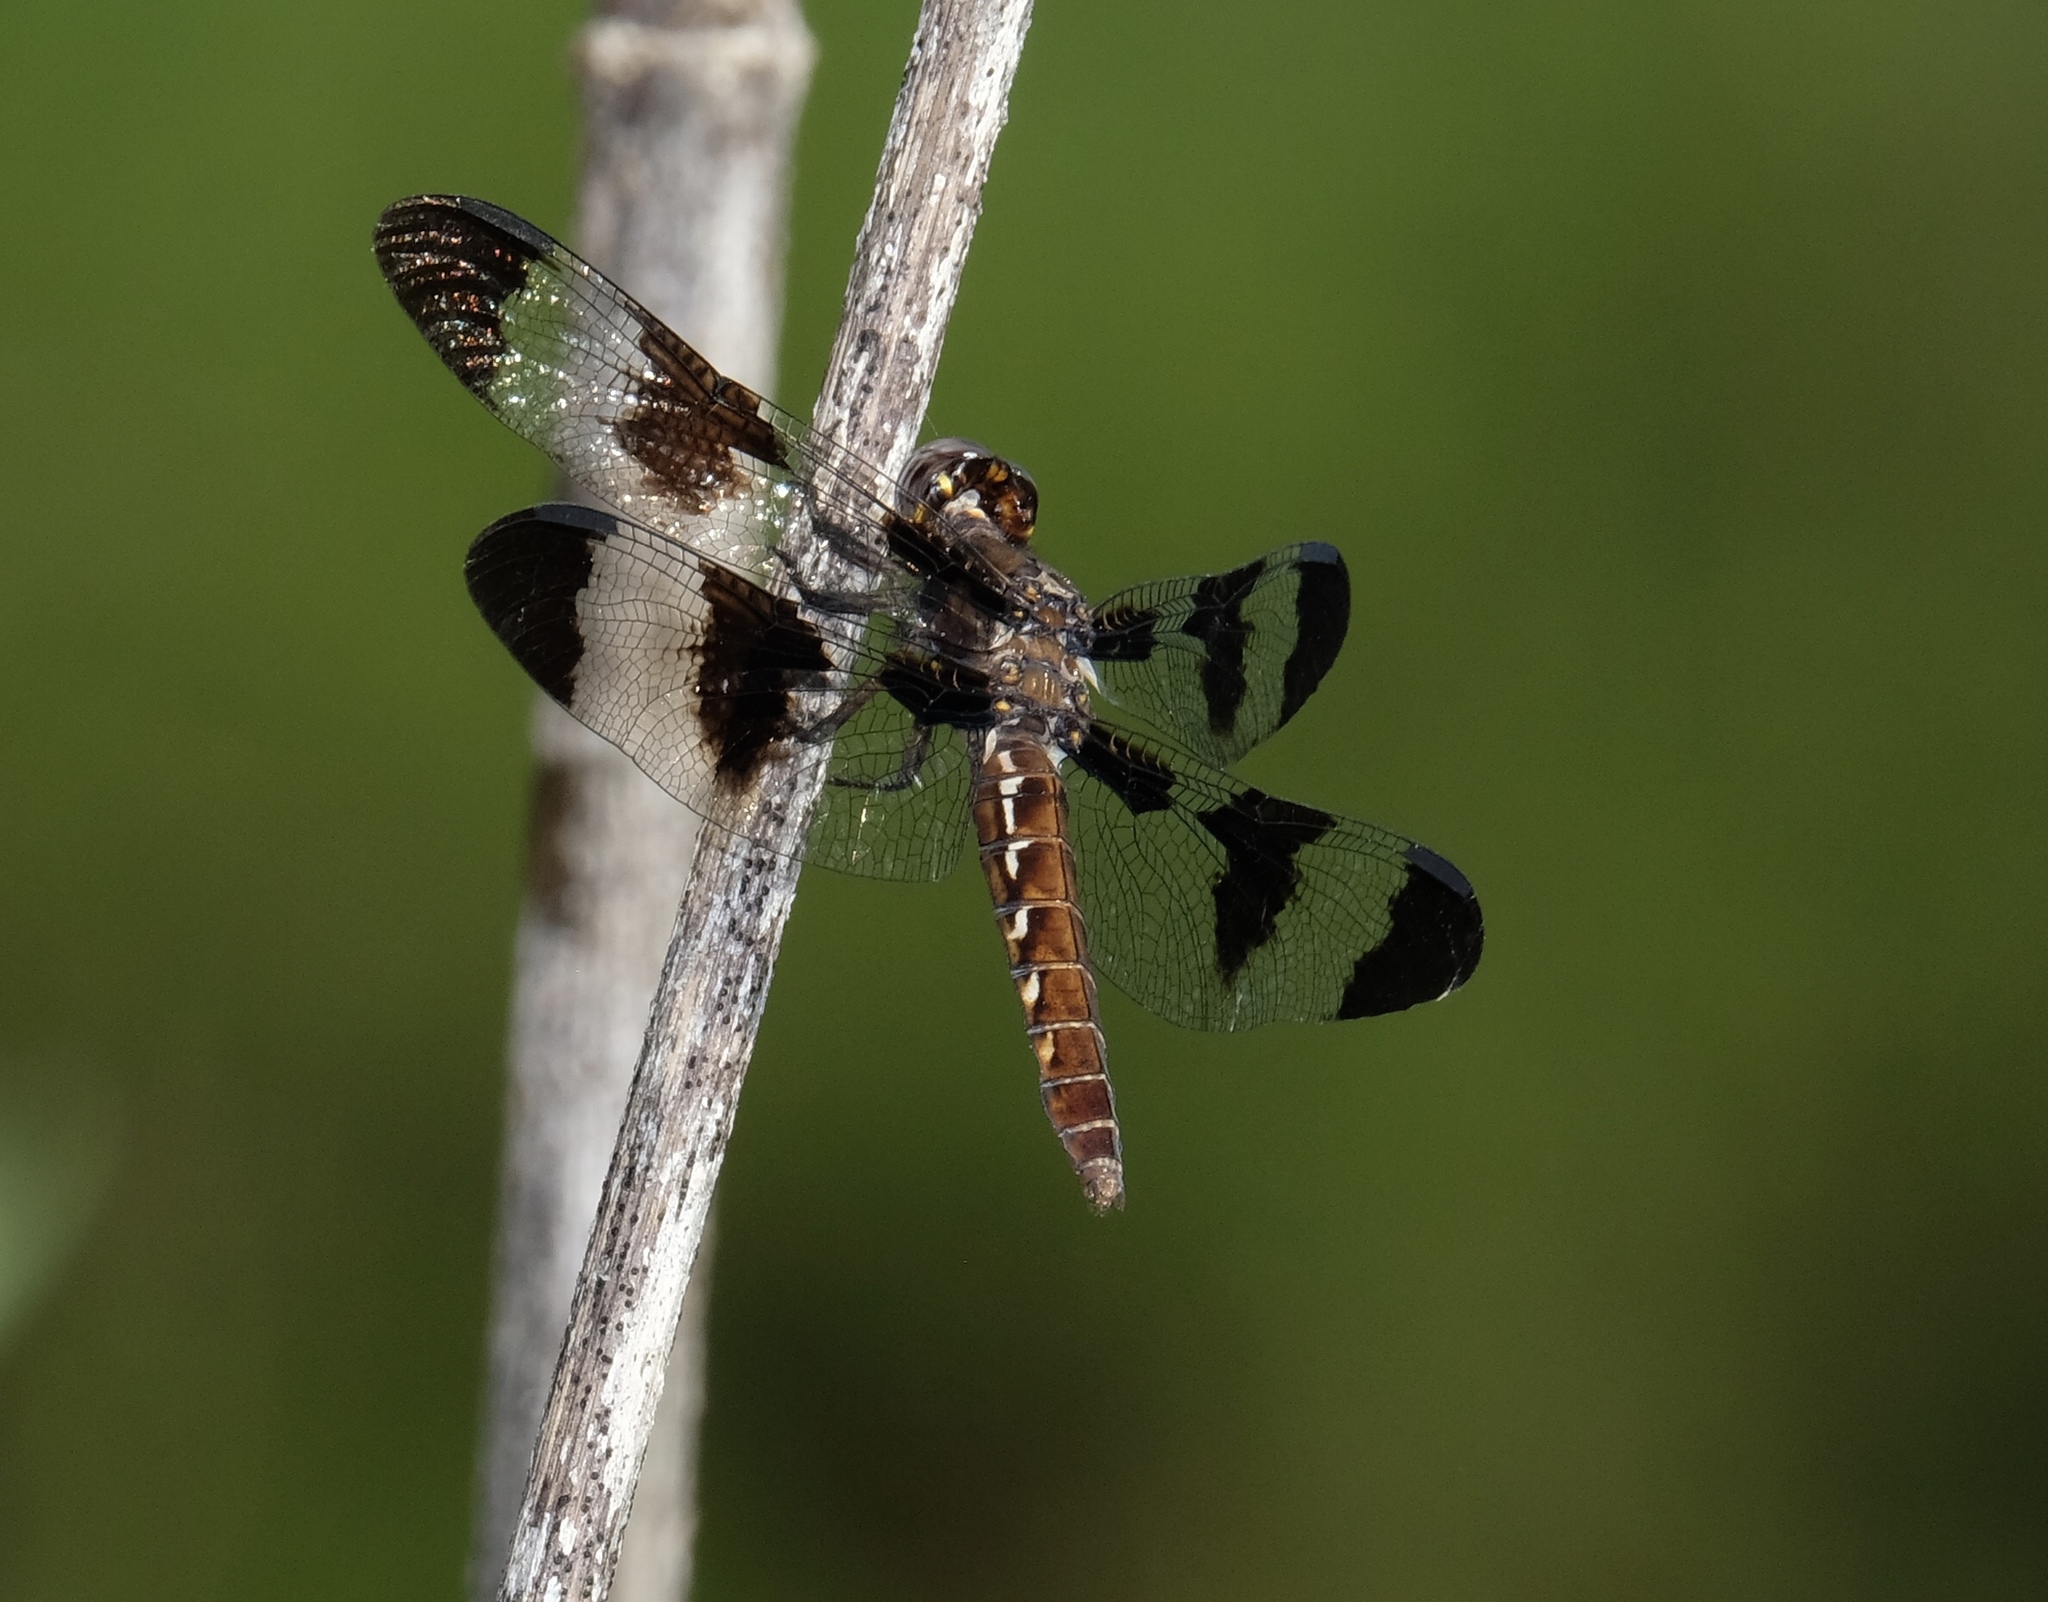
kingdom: Animalia
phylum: Arthropoda
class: Insecta
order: Odonata
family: Libellulidae
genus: Plathemis
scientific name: Plathemis lydia
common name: Common whitetail
